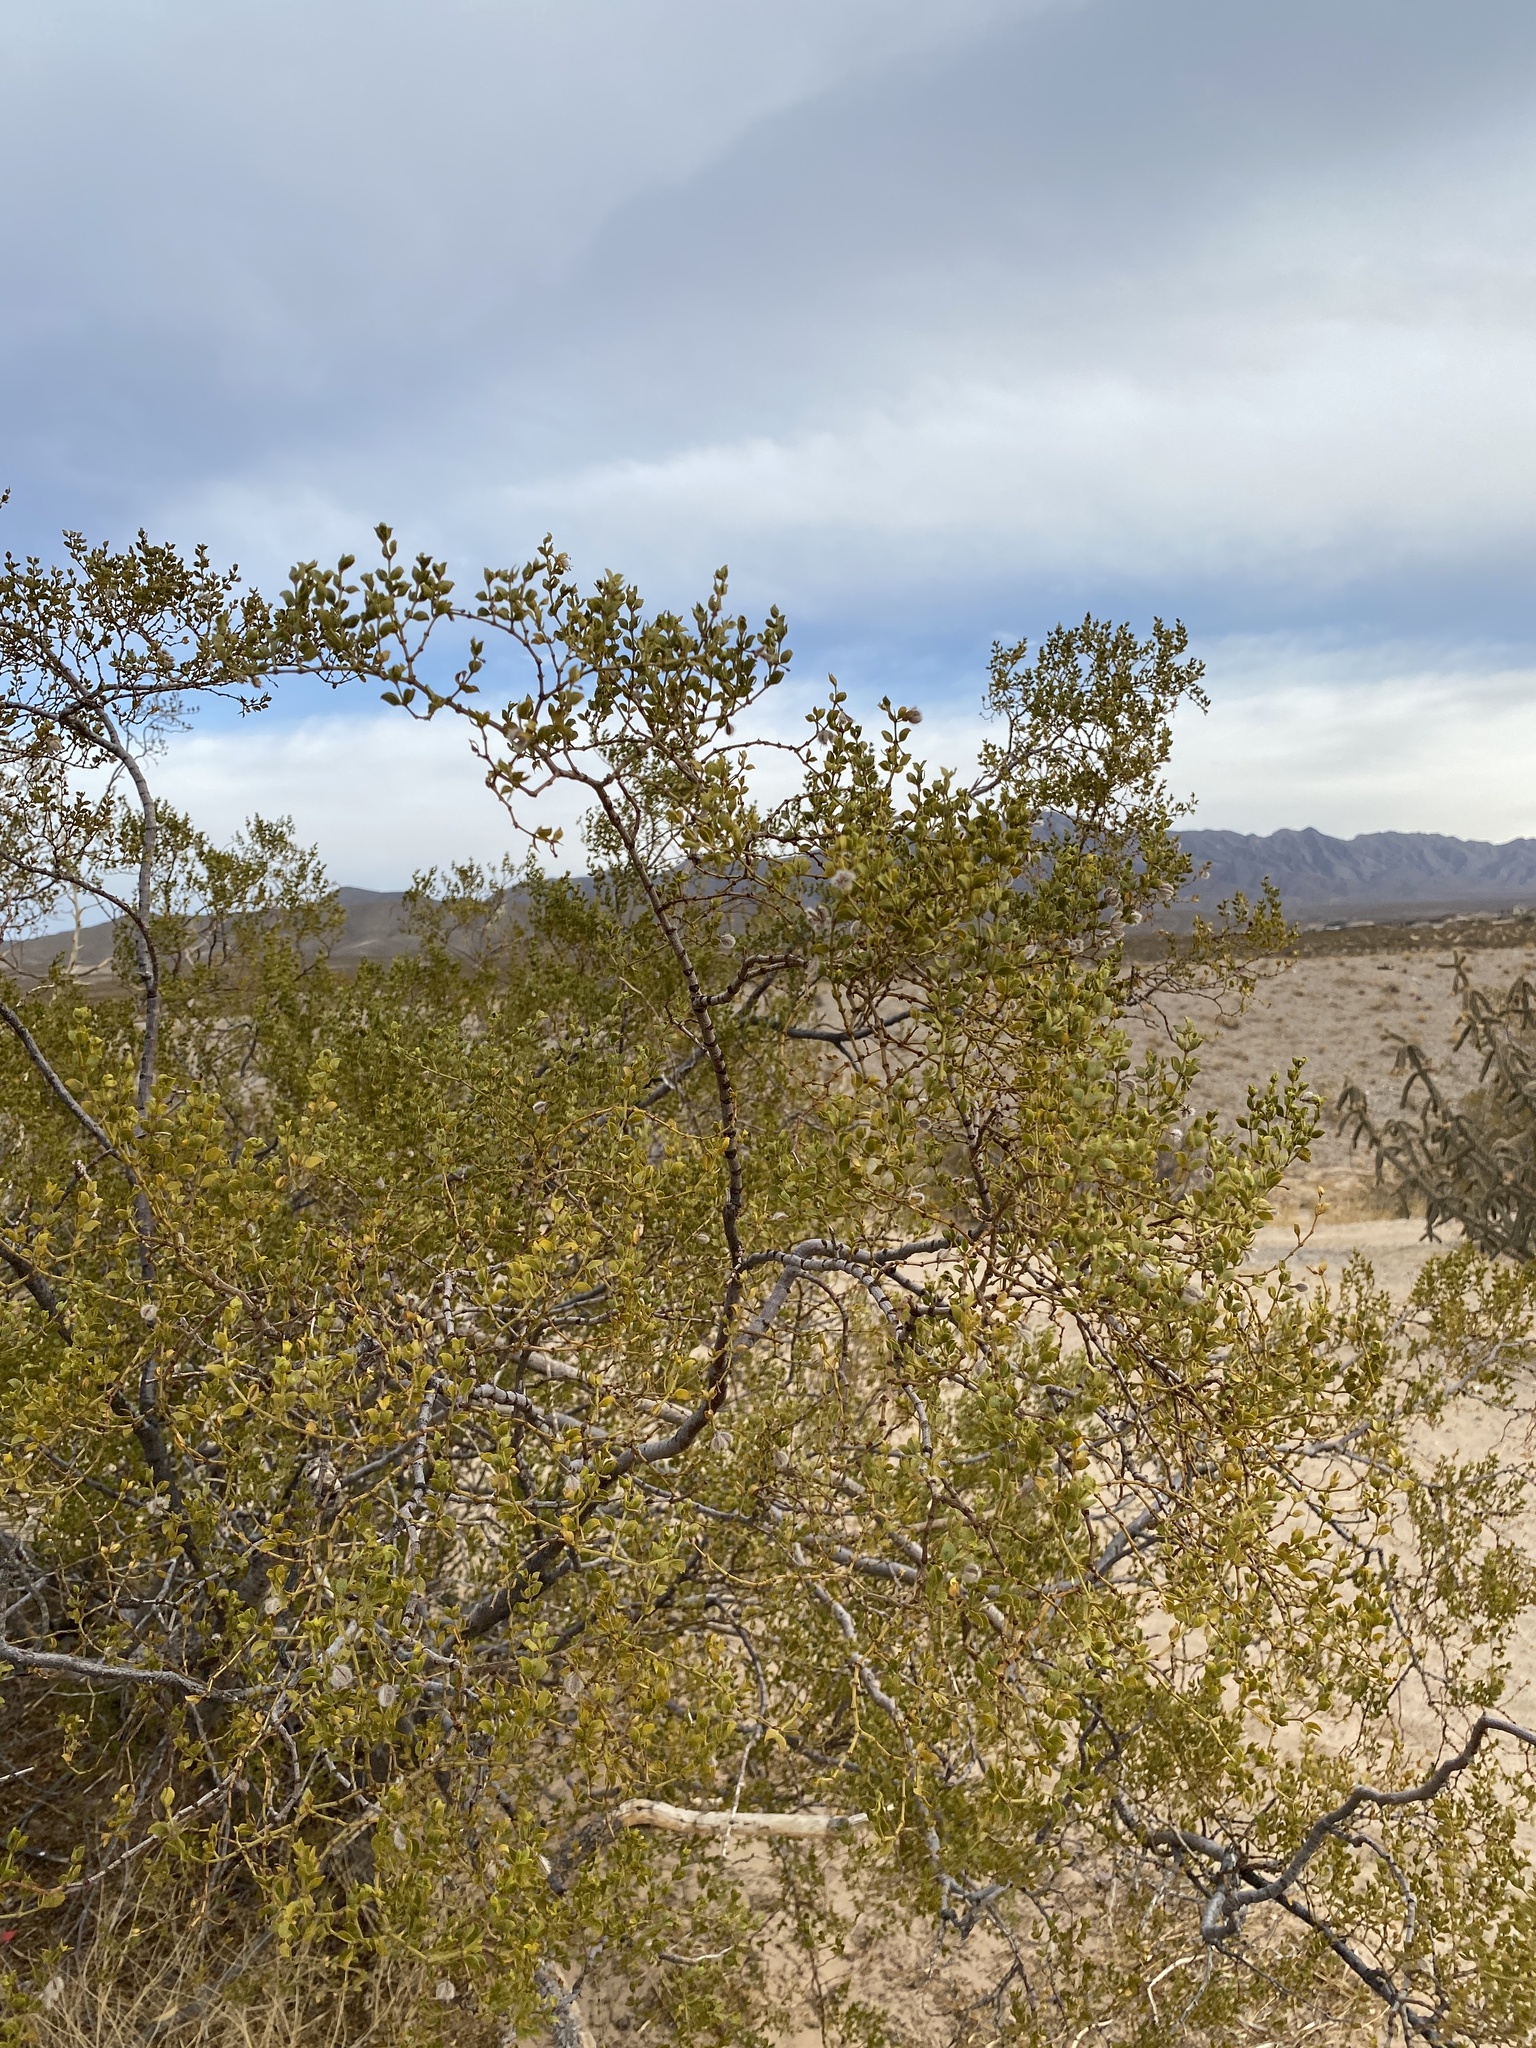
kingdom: Plantae
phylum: Tracheophyta
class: Magnoliopsida
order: Zygophyllales
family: Zygophyllaceae
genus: Larrea
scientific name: Larrea tridentata
